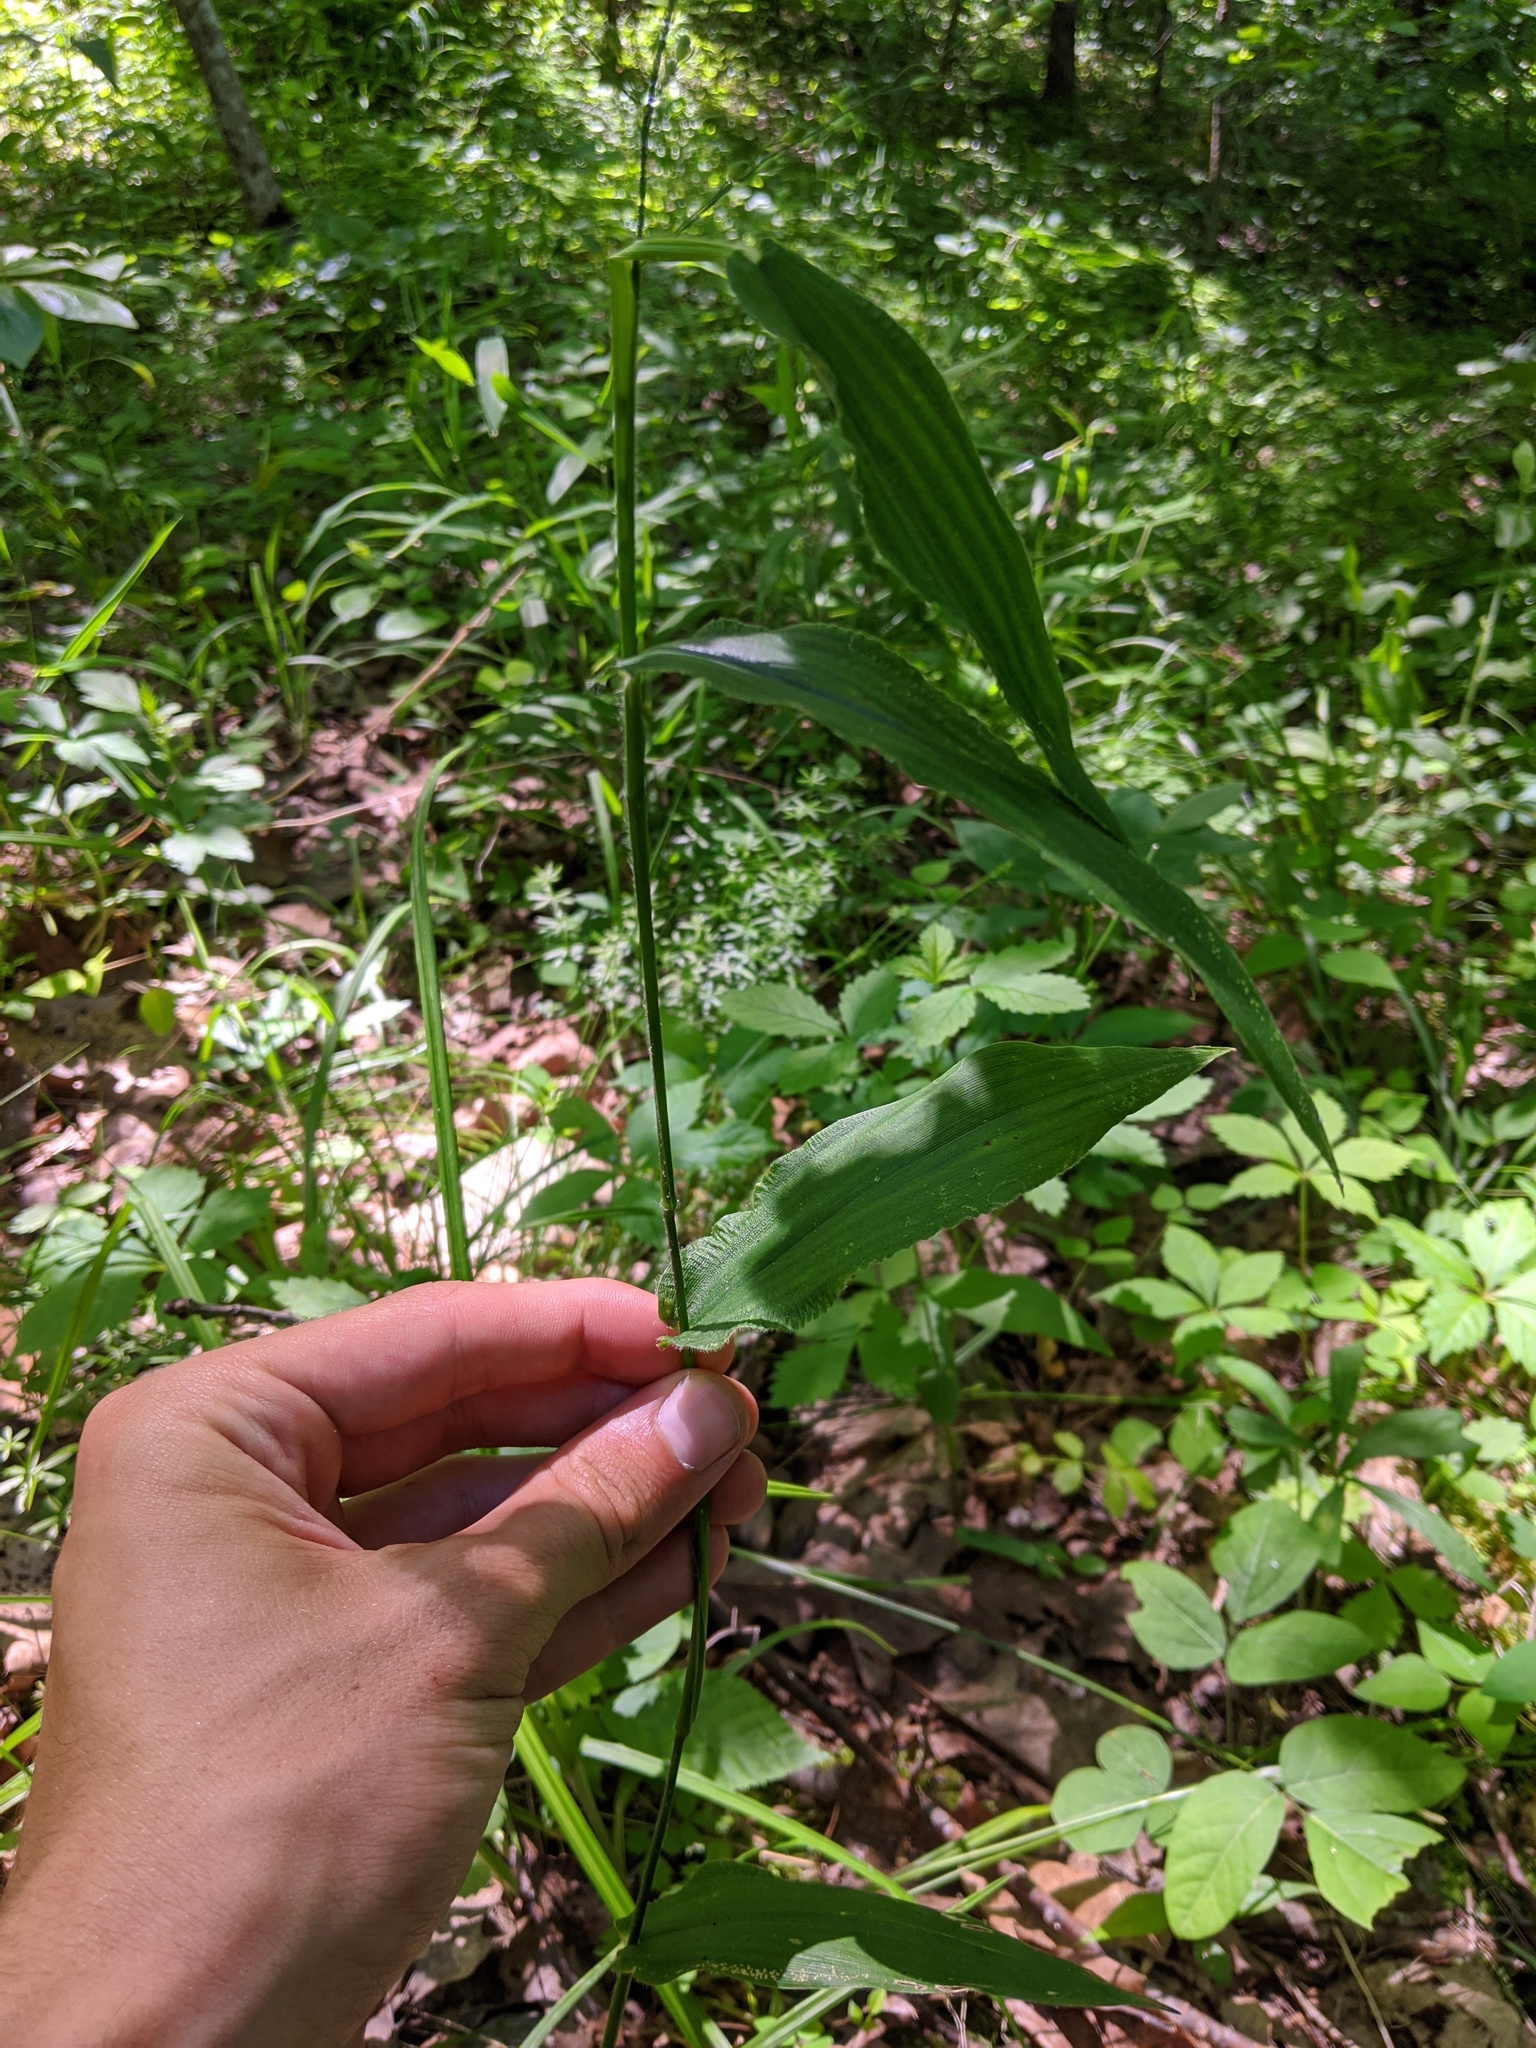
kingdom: Plantae
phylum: Tracheophyta
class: Liliopsida
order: Poales
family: Poaceae
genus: Dichanthelium
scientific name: Dichanthelium latifolium
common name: Broad-leaved panicgrass
